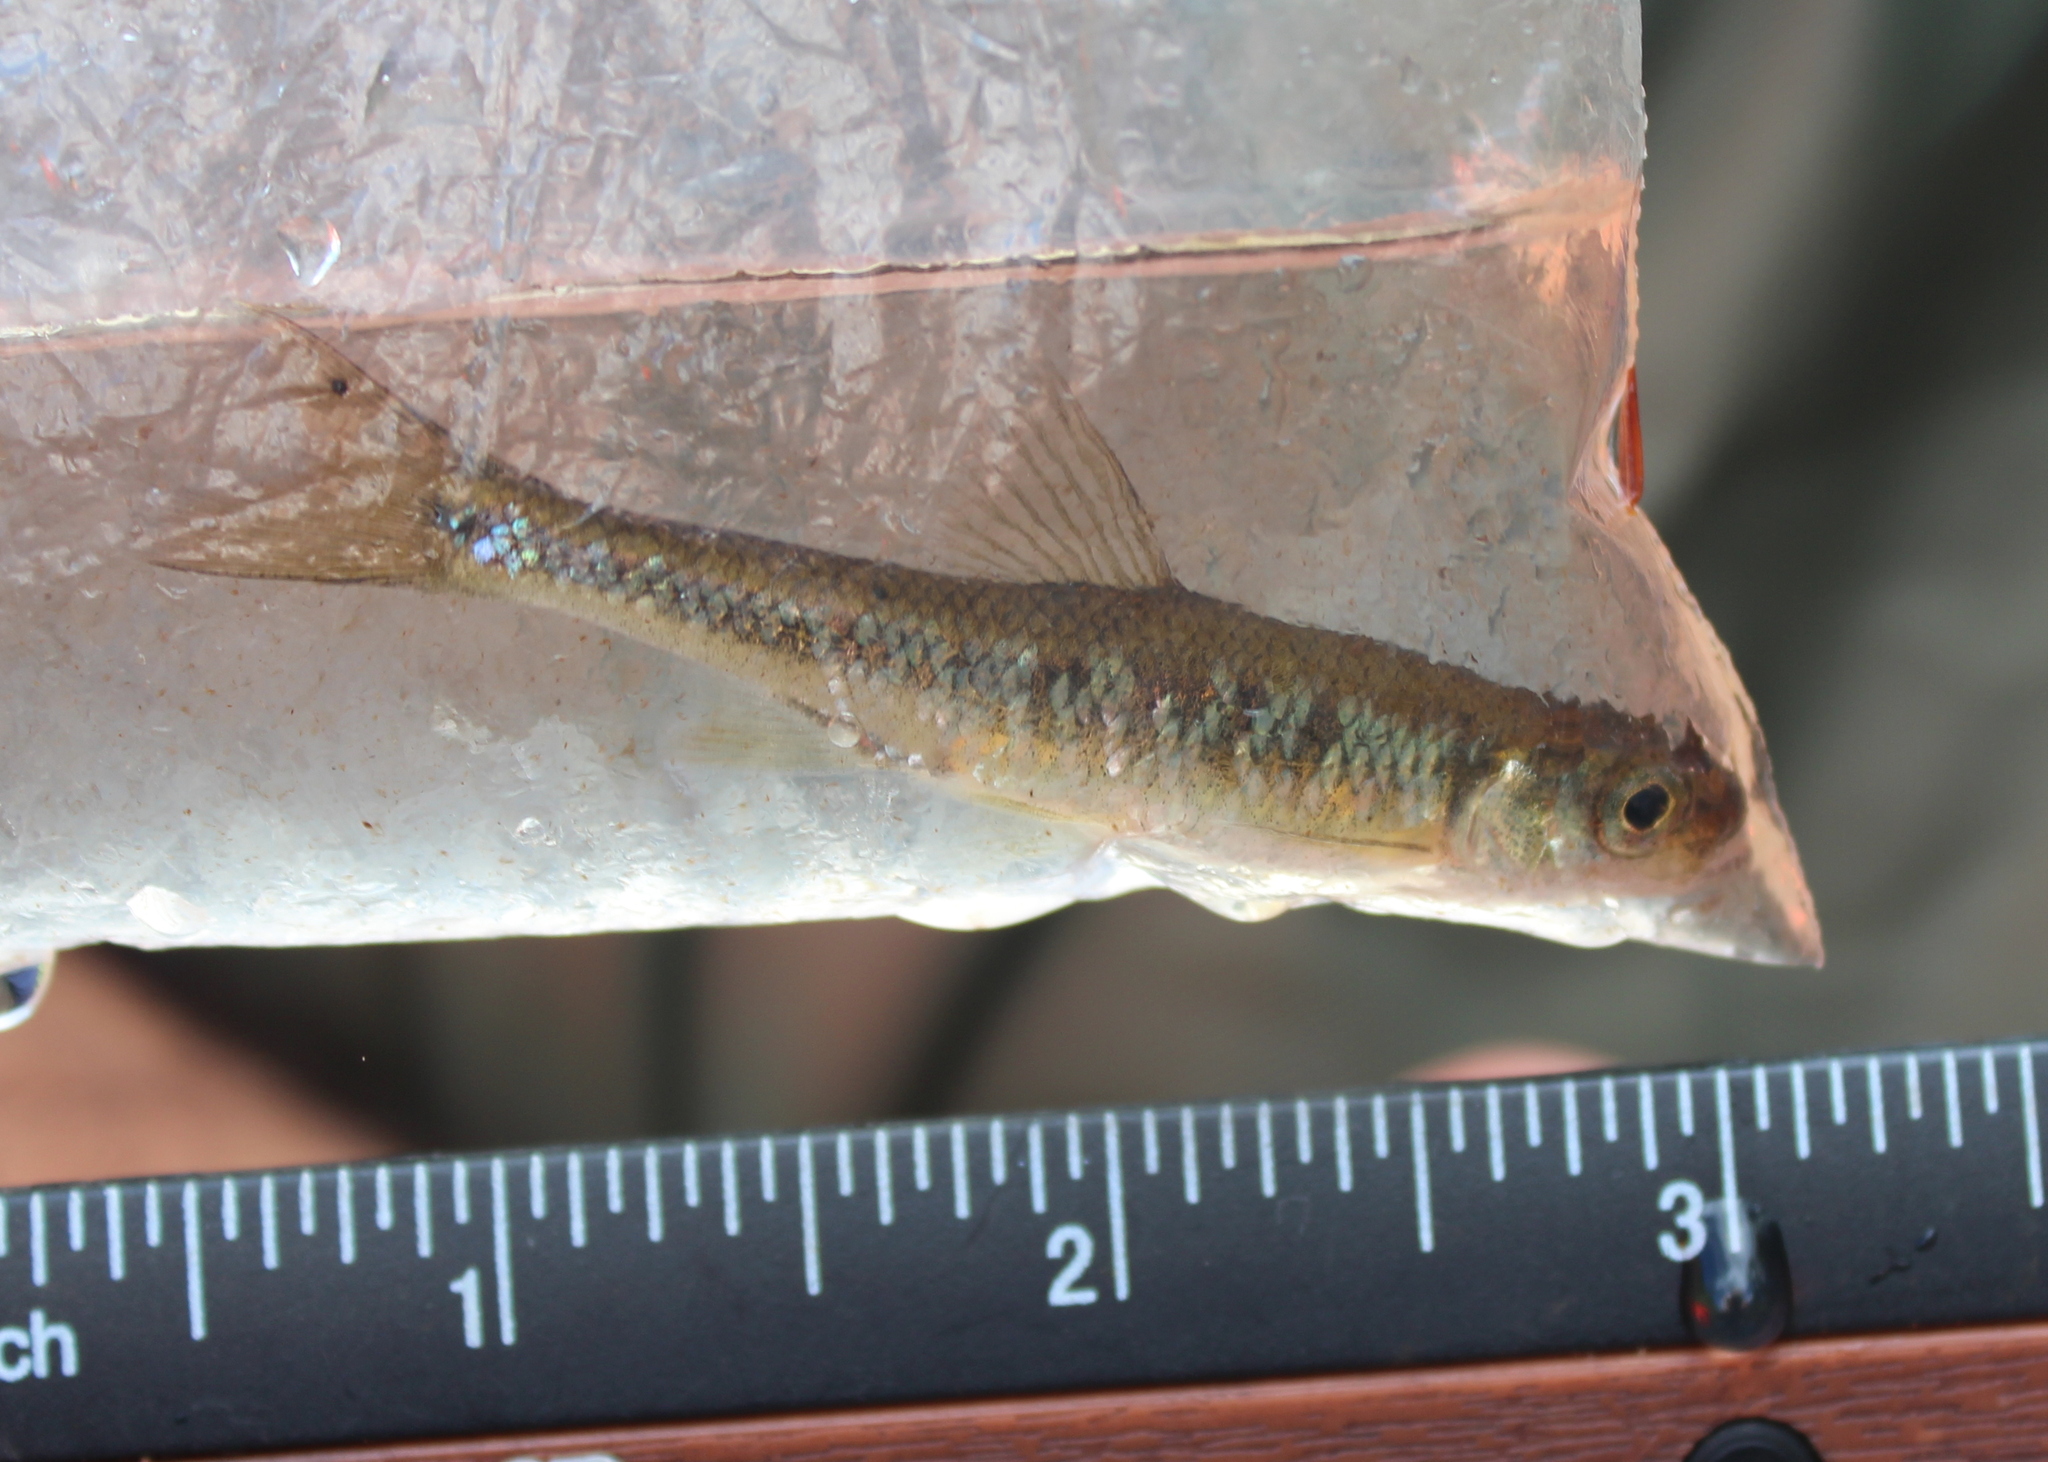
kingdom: Animalia
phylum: Chordata
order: Cypriniformes
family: Cyprinidae
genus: Luxilus
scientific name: Luxilus cornutus
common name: Common shiner
